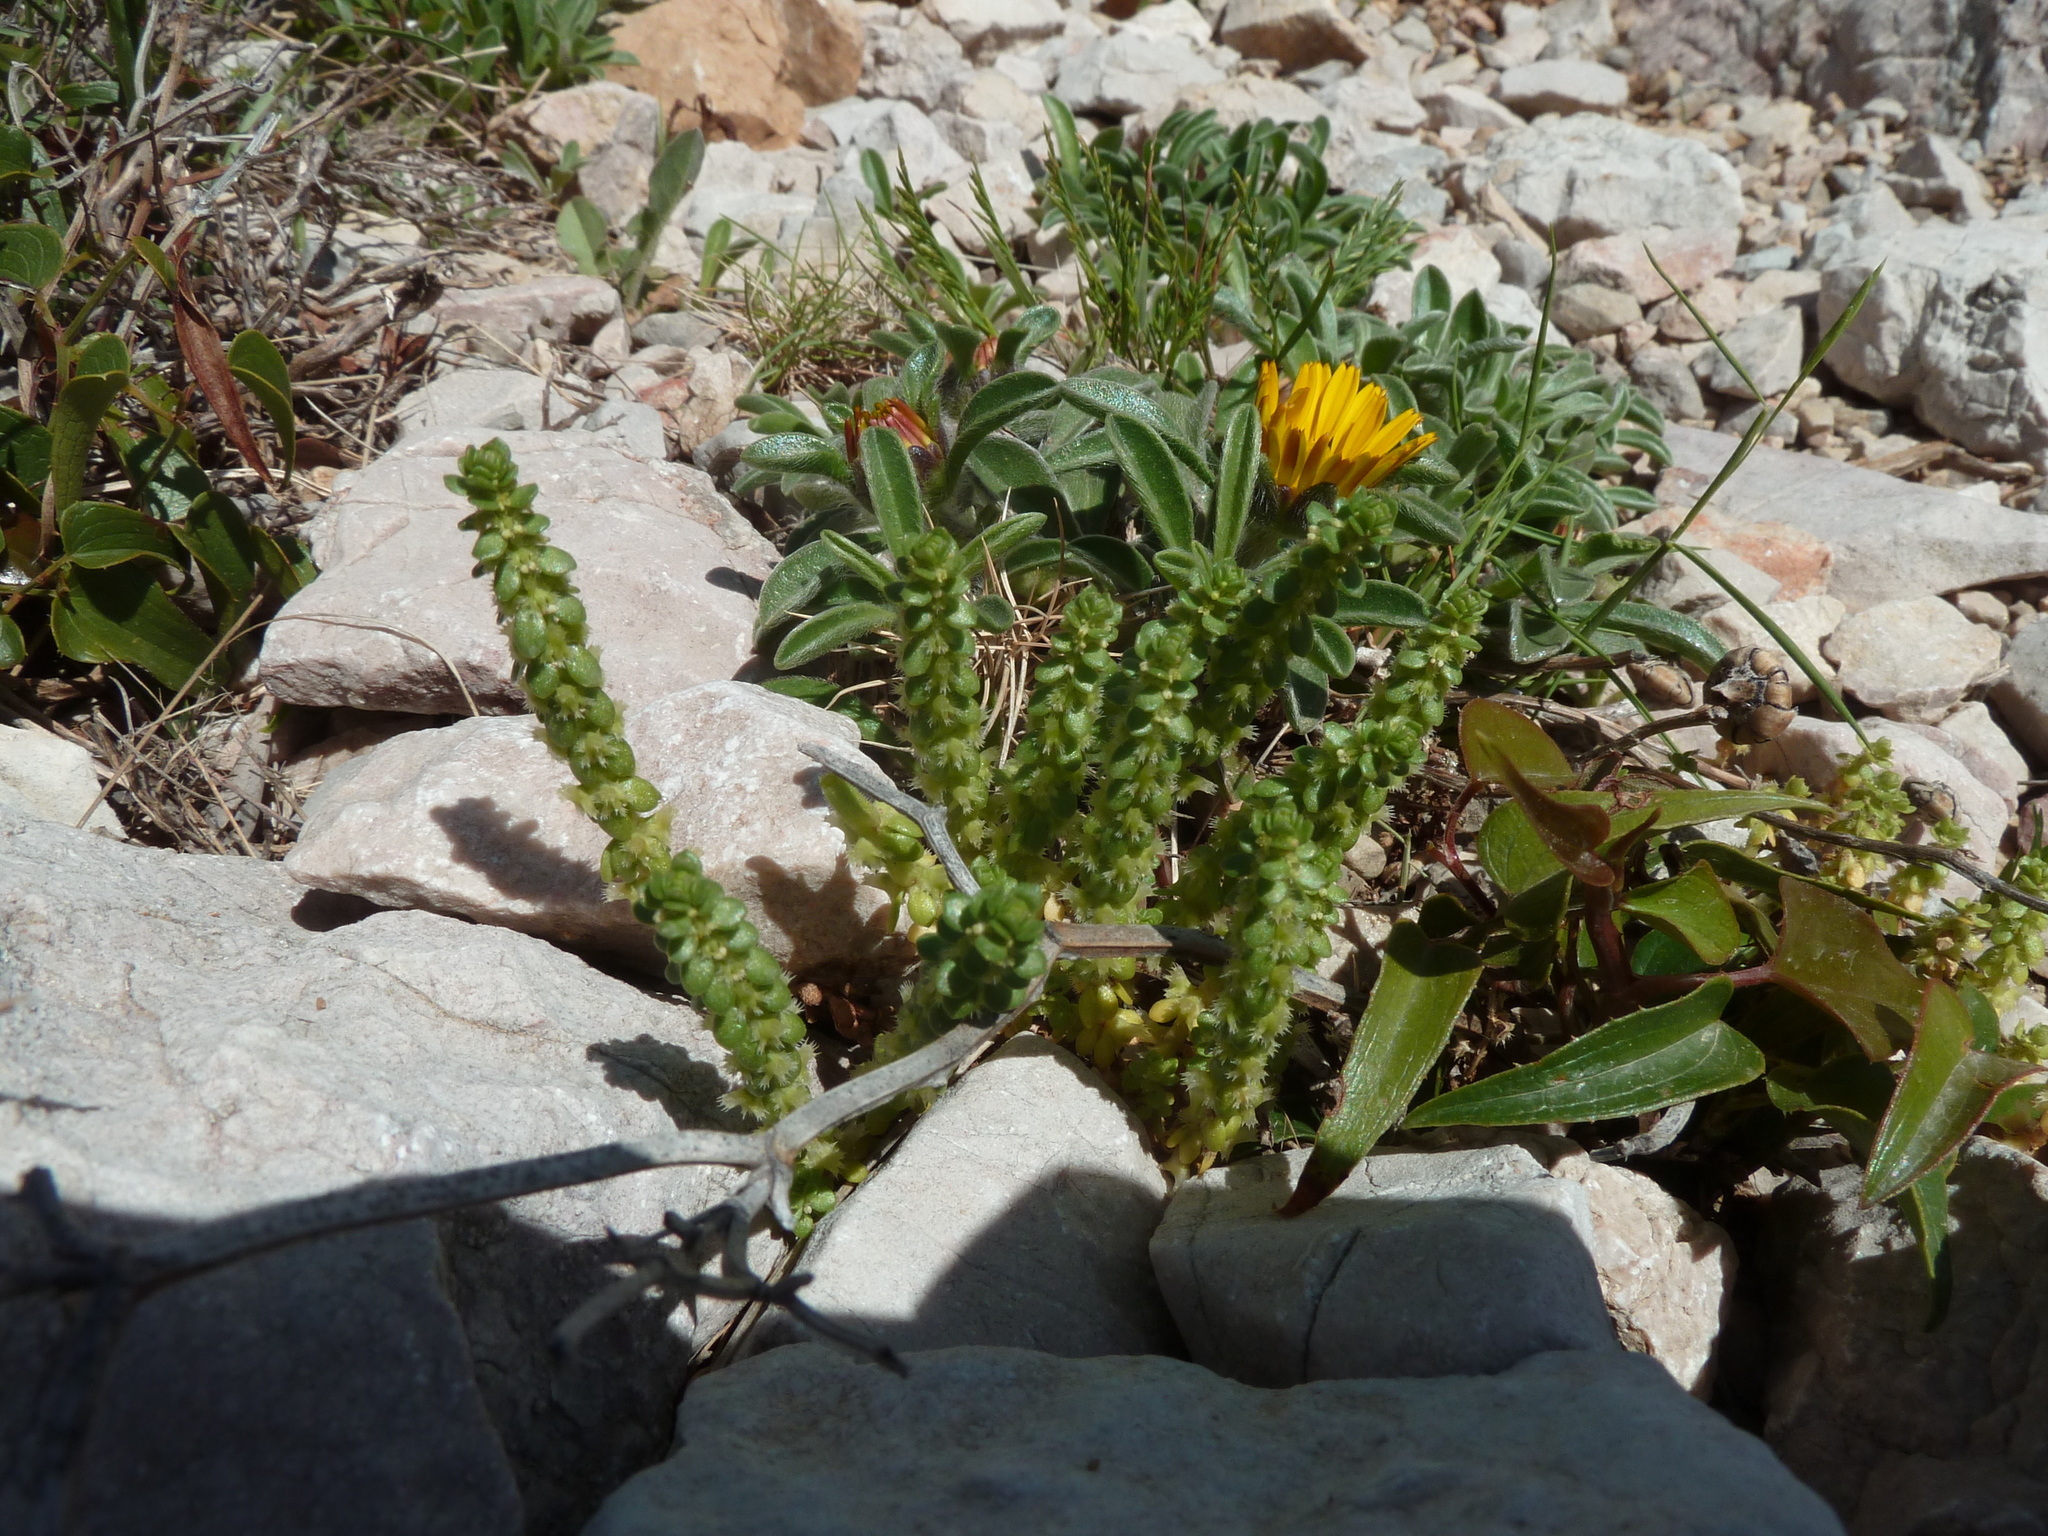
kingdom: Plantae
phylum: Tracheophyta
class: Magnoliopsida
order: Gentianales
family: Rubiaceae
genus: Valantia
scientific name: Valantia muralis
